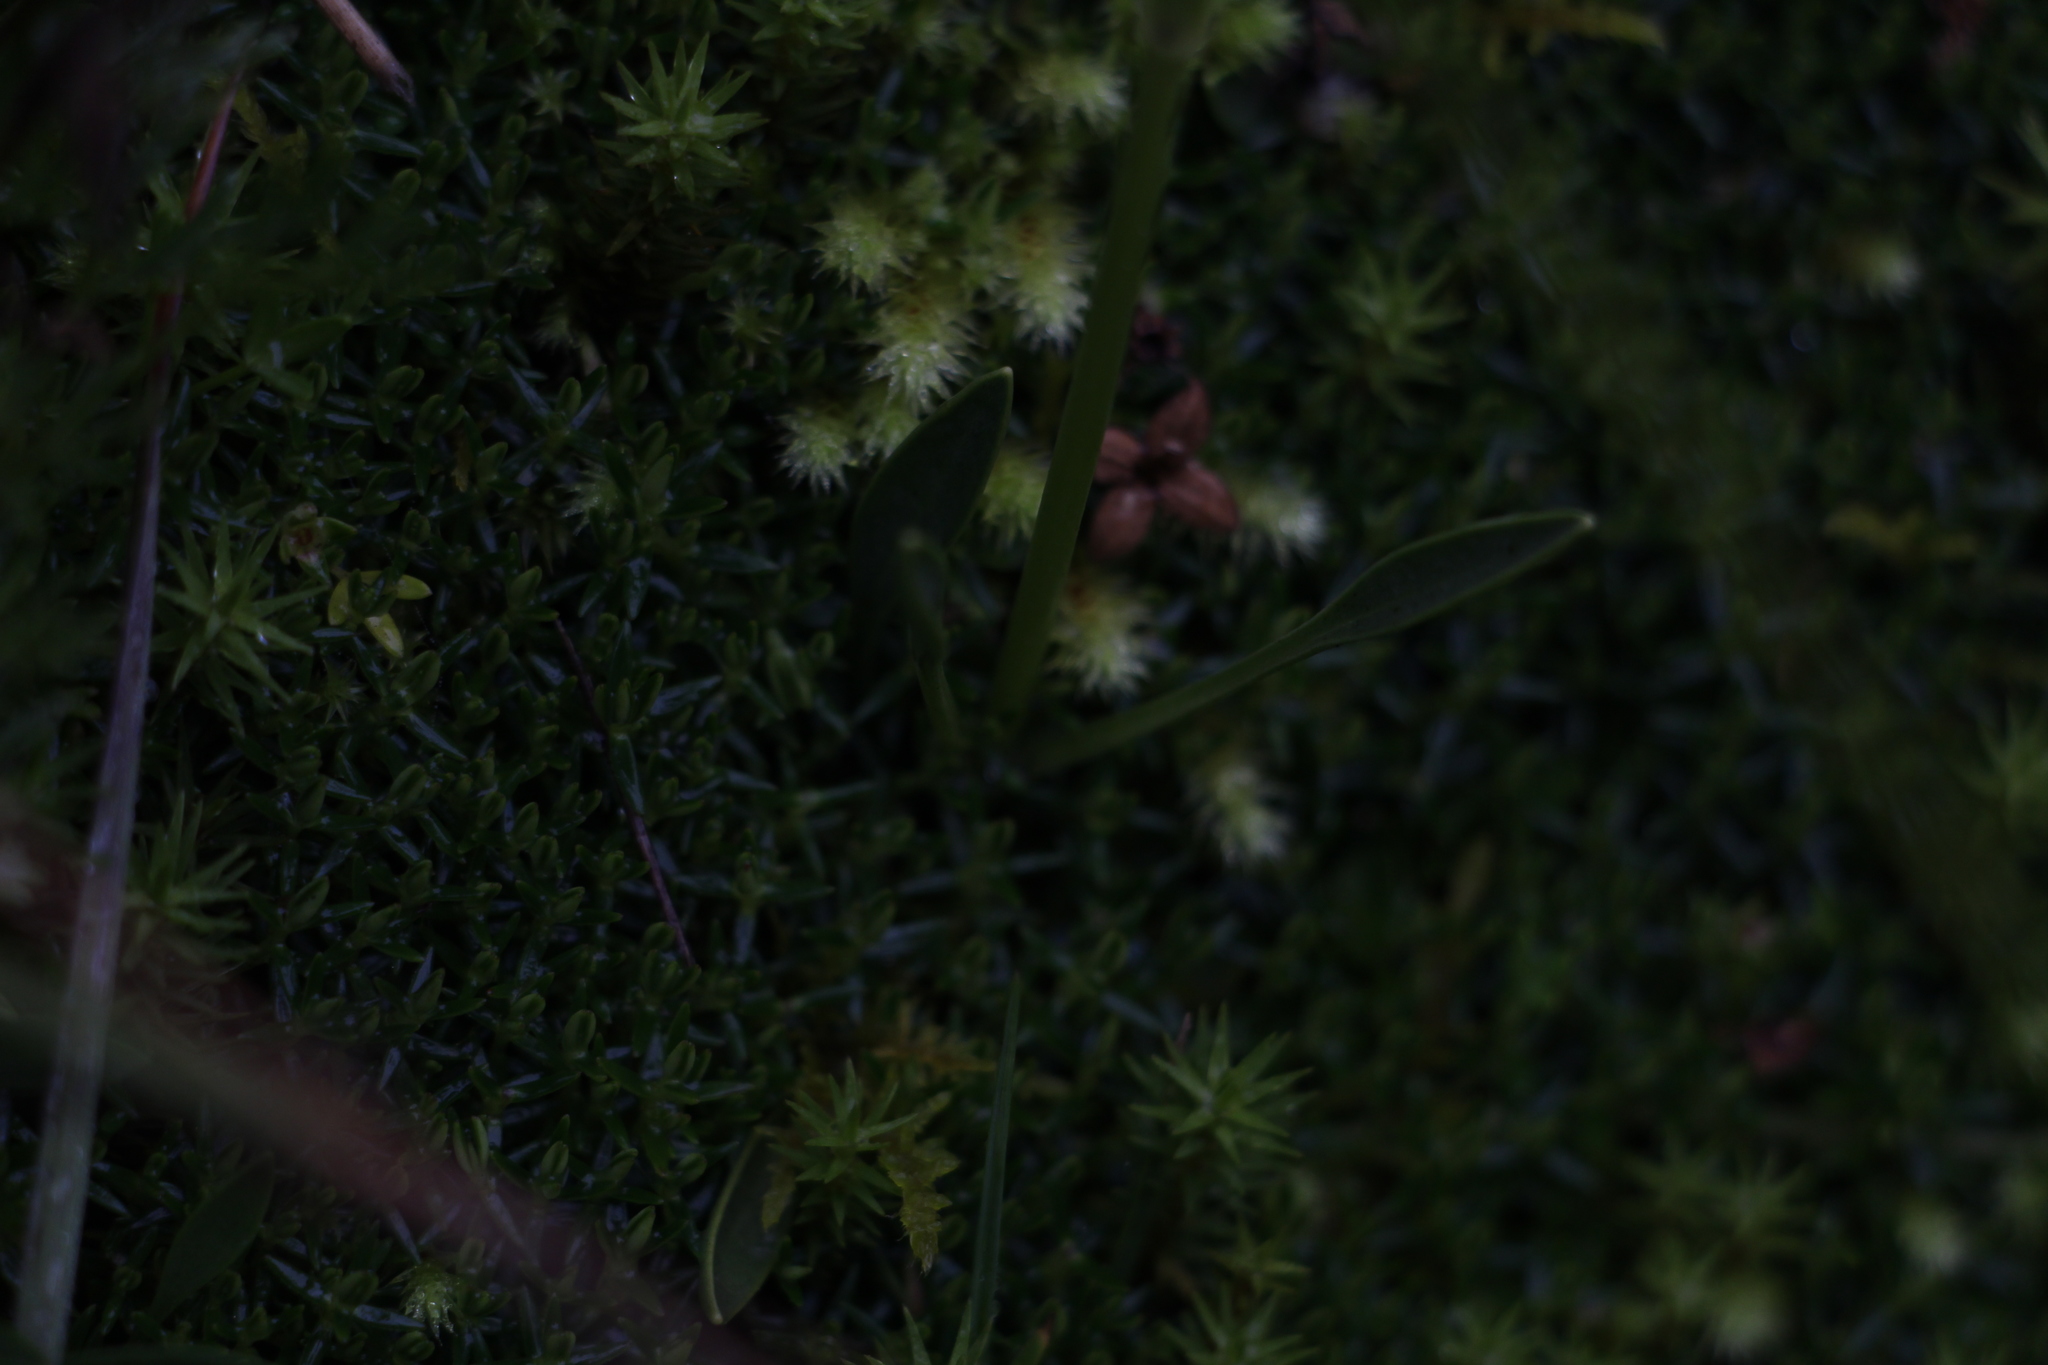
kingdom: Plantae
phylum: Tracheophyta
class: Magnoliopsida
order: Gentianales
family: Gentianaceae
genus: Halenia
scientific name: Halenia adpressa
